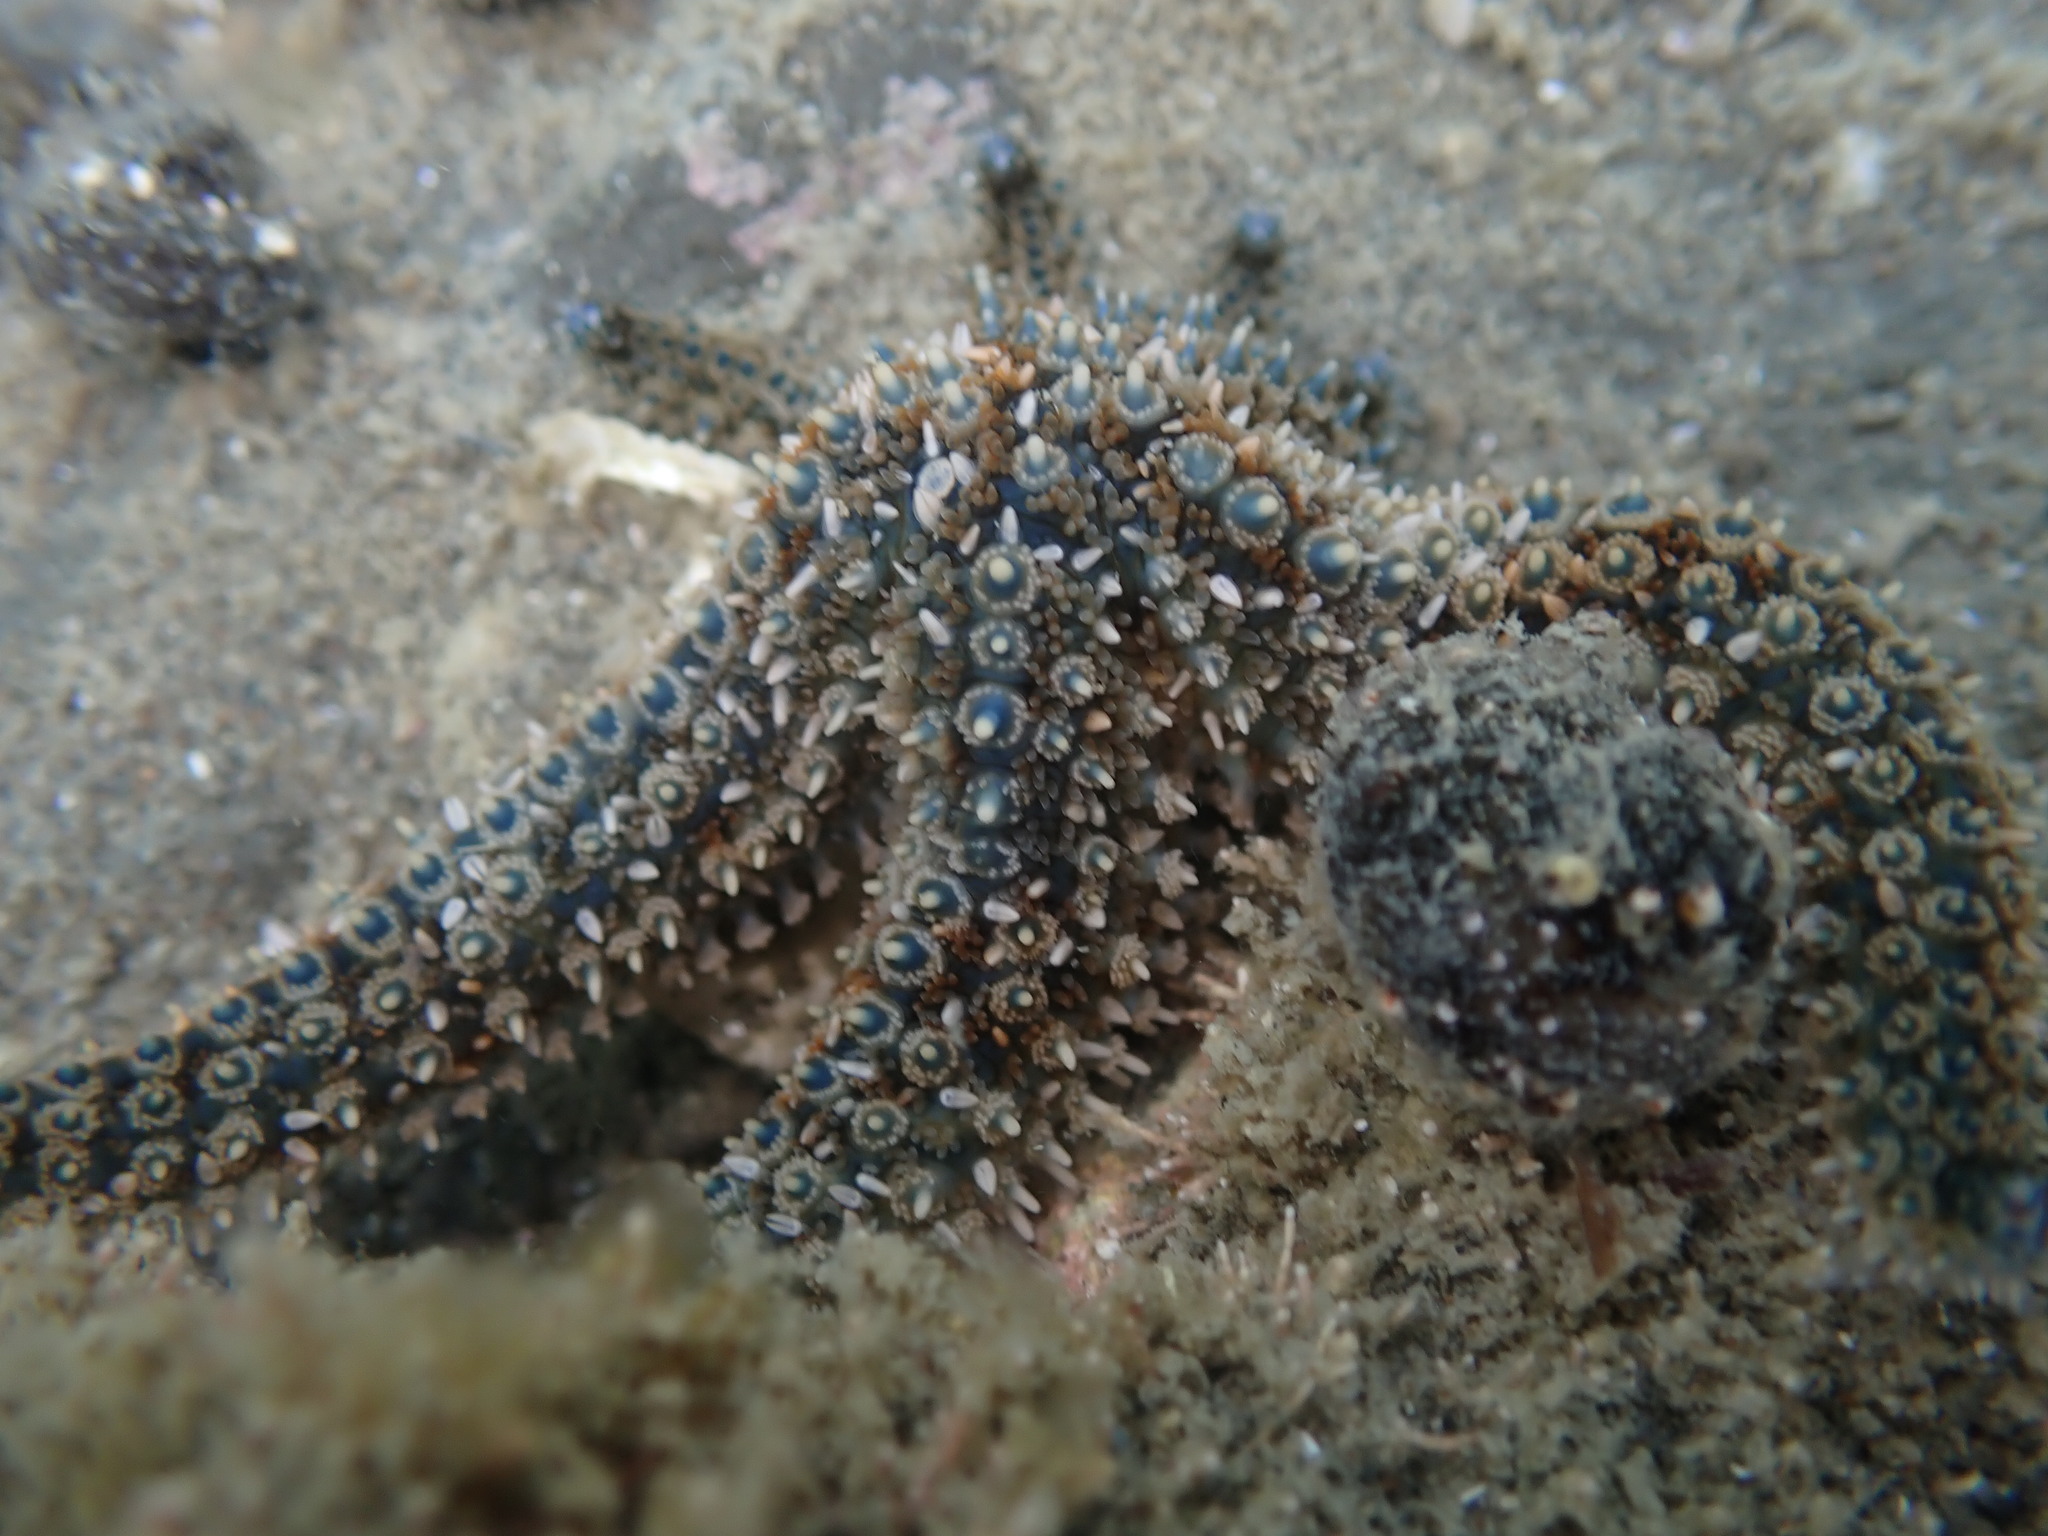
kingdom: Animalia
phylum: Echinodermata
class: Asteroidea
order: Forcipulatida
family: Asteriidae
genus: Coscinasterias
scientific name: Coscinasterias muricata
